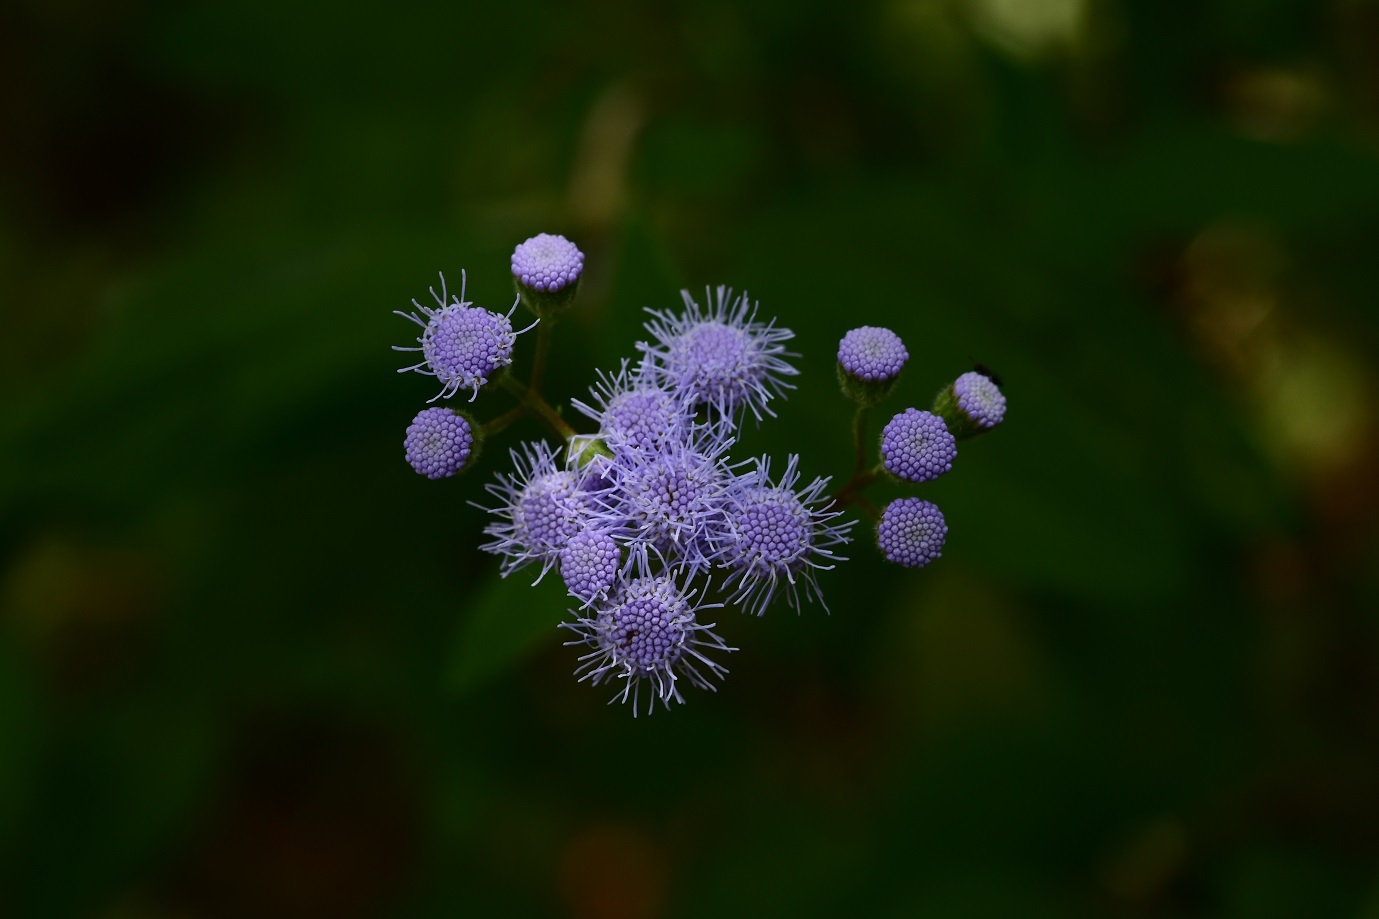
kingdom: Plantae
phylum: Tracheophyta
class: Magnoliopsida
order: Asterales
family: Asteraceae
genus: Fleischmannia
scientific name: Fleischmannia pycnocephala
